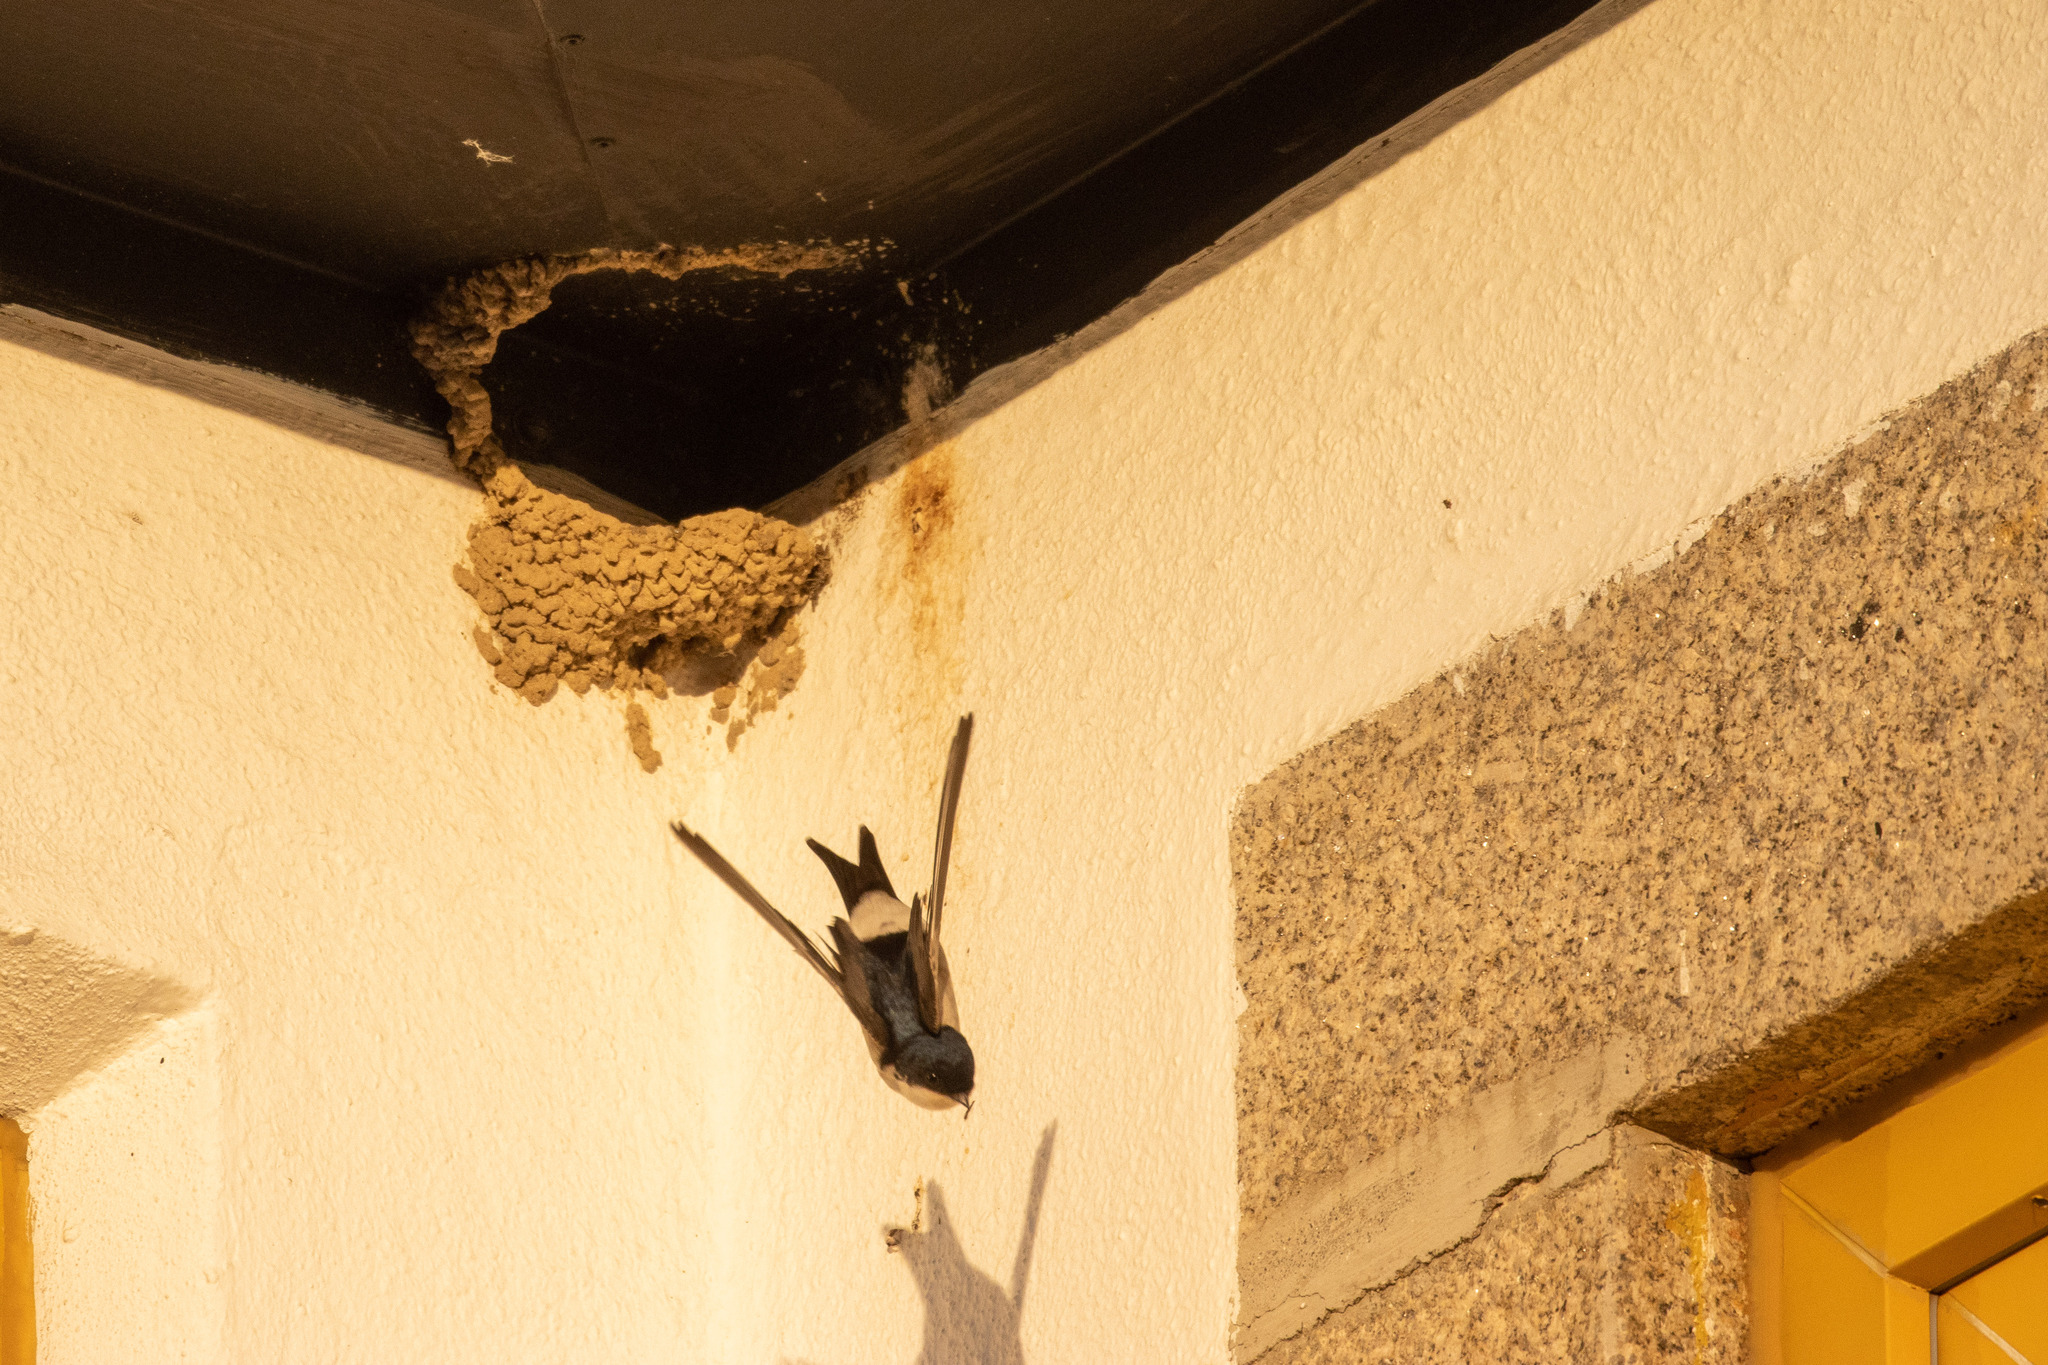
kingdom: Animalia
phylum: Chordata
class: Aves
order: Passeriformes
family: Hirundinidae
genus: Delichon
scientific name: Delichon urbicum
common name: Common house martin
